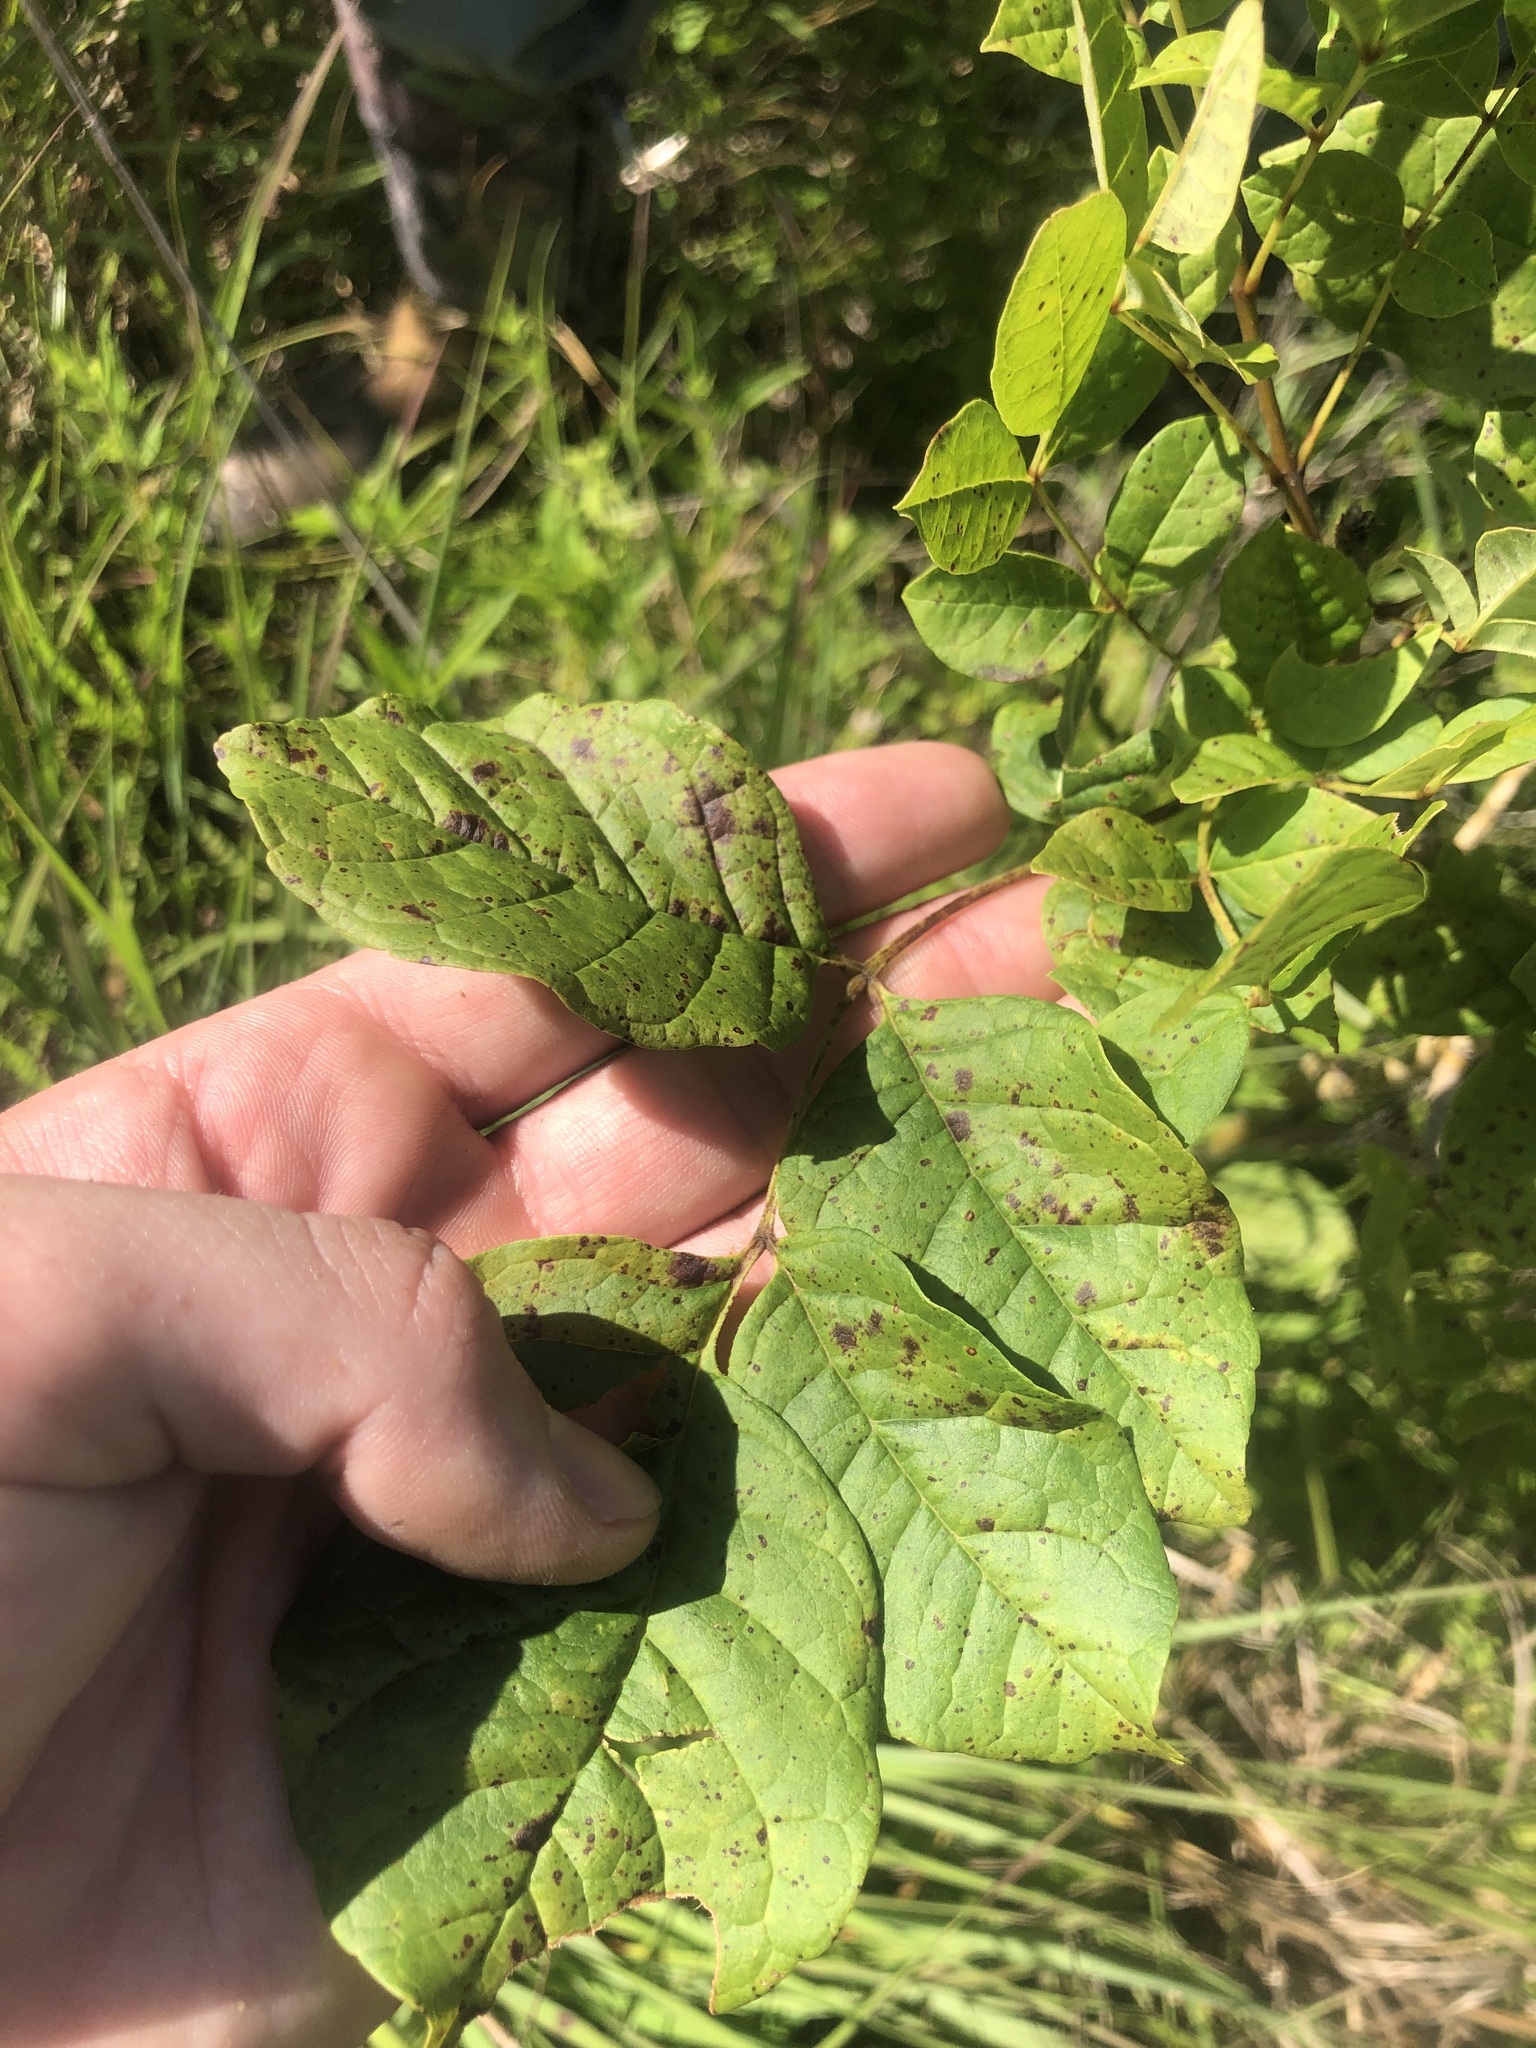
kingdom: Plantae
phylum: Tracheophyta
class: Magnoliopsida
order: Lamiales
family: Oleaceae
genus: Fraxinus
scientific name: Fraxinus americana
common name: White ash
